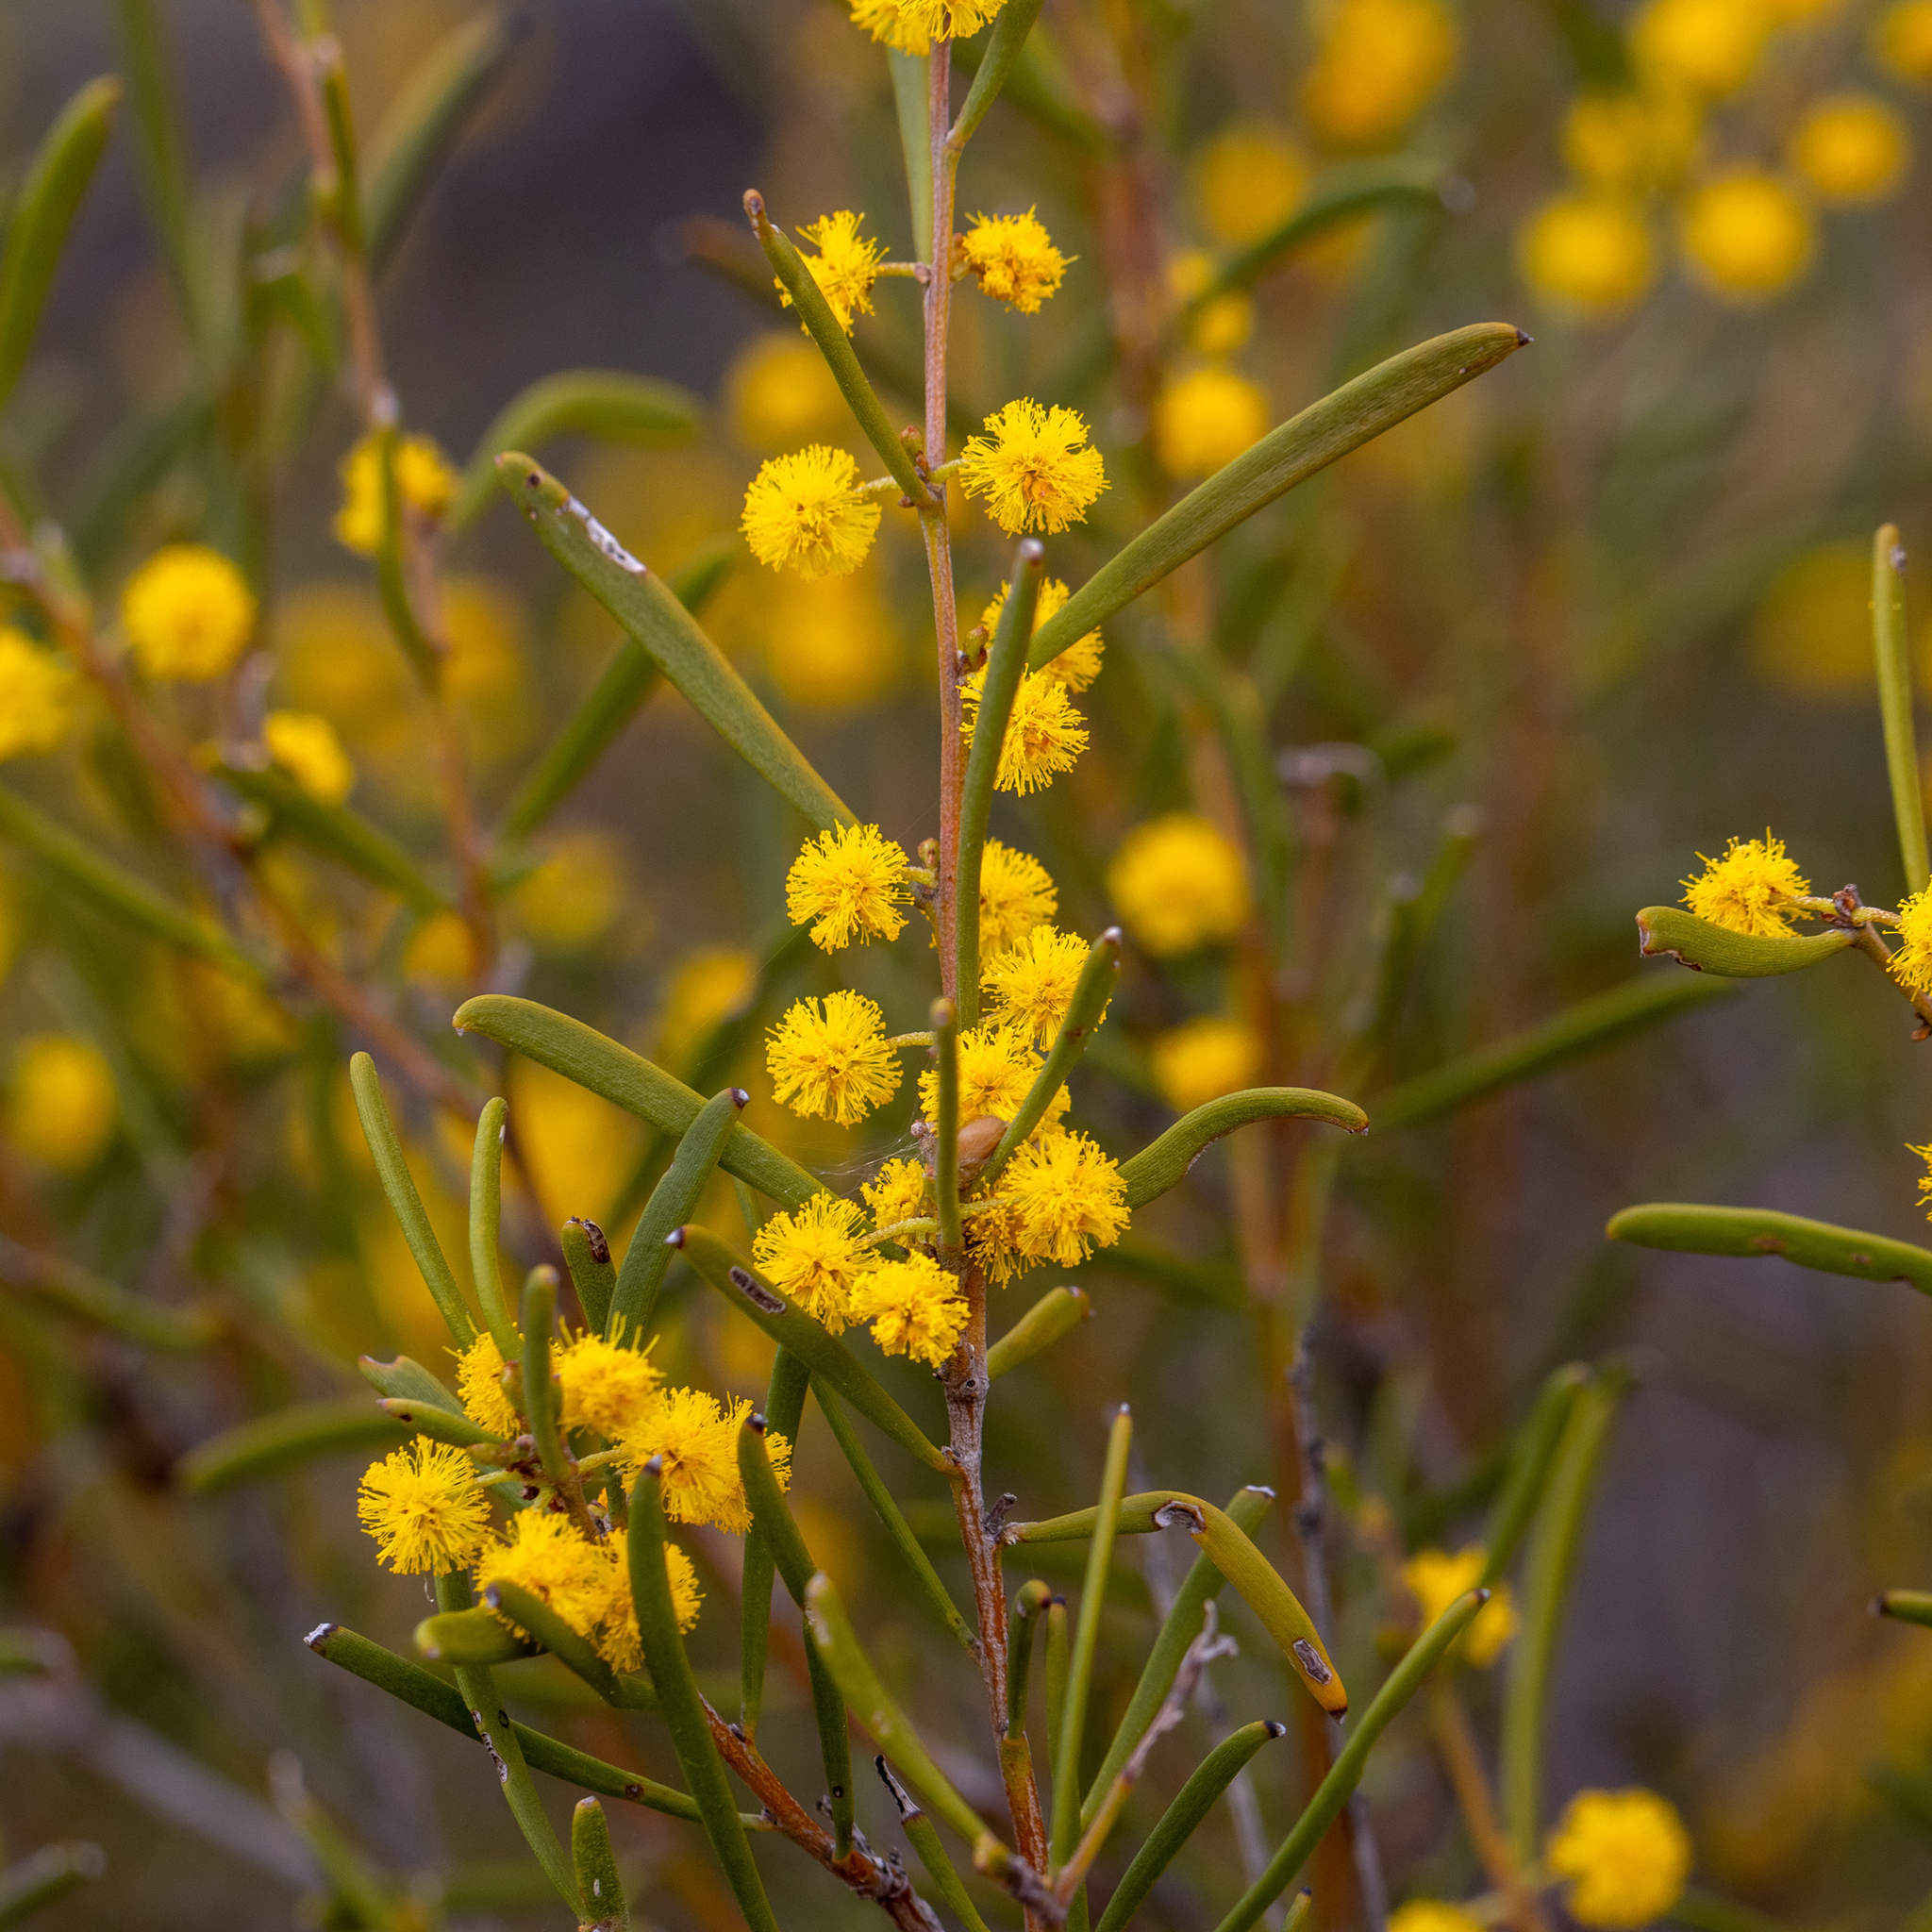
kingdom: Plantae
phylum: Tracheophyta
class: Magnoliopsida
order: Fabales
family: Fabaceae
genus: Acacia
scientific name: Acacia sclerophylla
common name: Hard-leaf wattle
